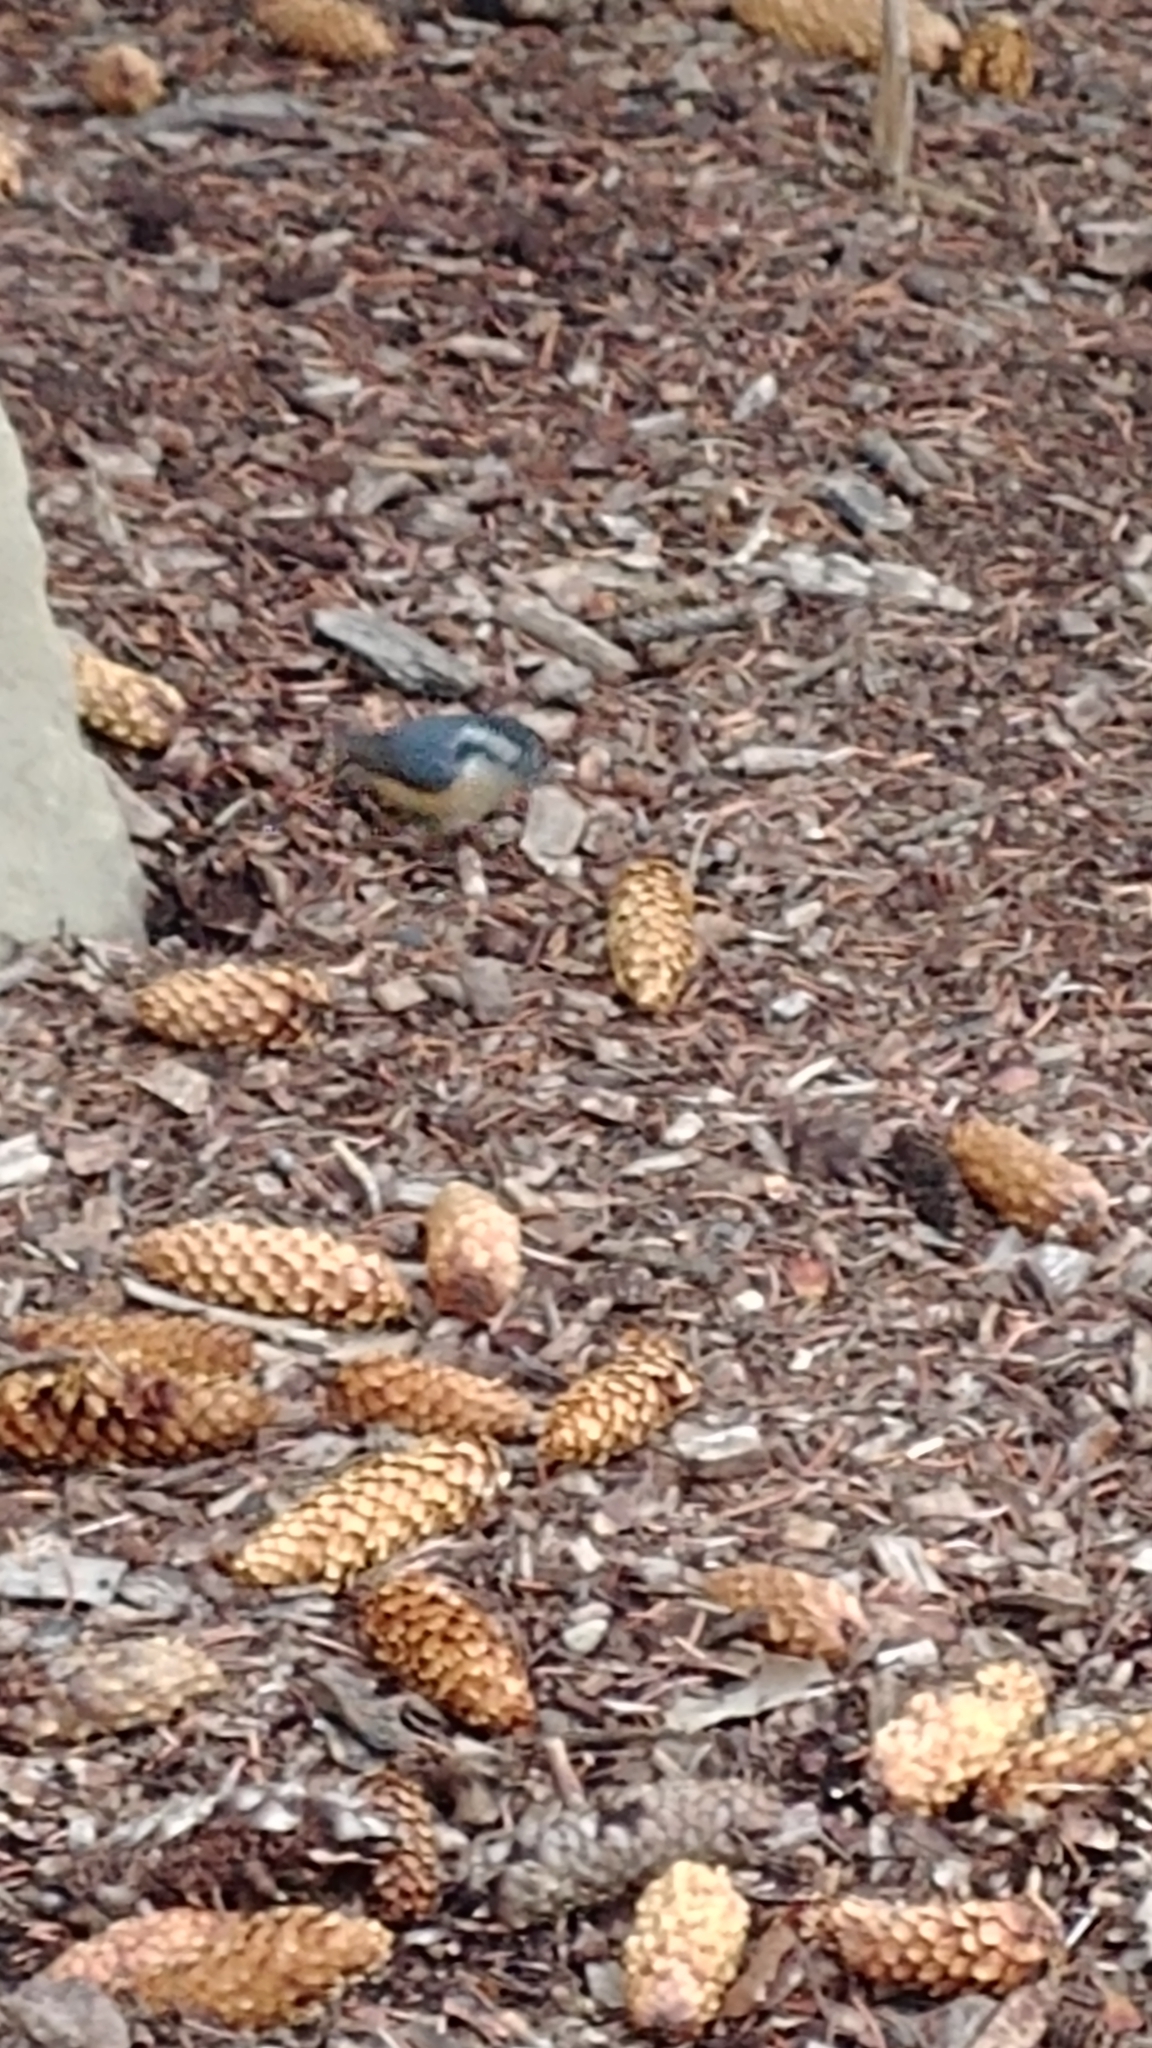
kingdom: Animalia
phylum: Chordata
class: Aves
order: Passeriformes
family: Sittidae
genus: Sitta
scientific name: Sitta canadensis
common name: Red-breasted nuthatch
